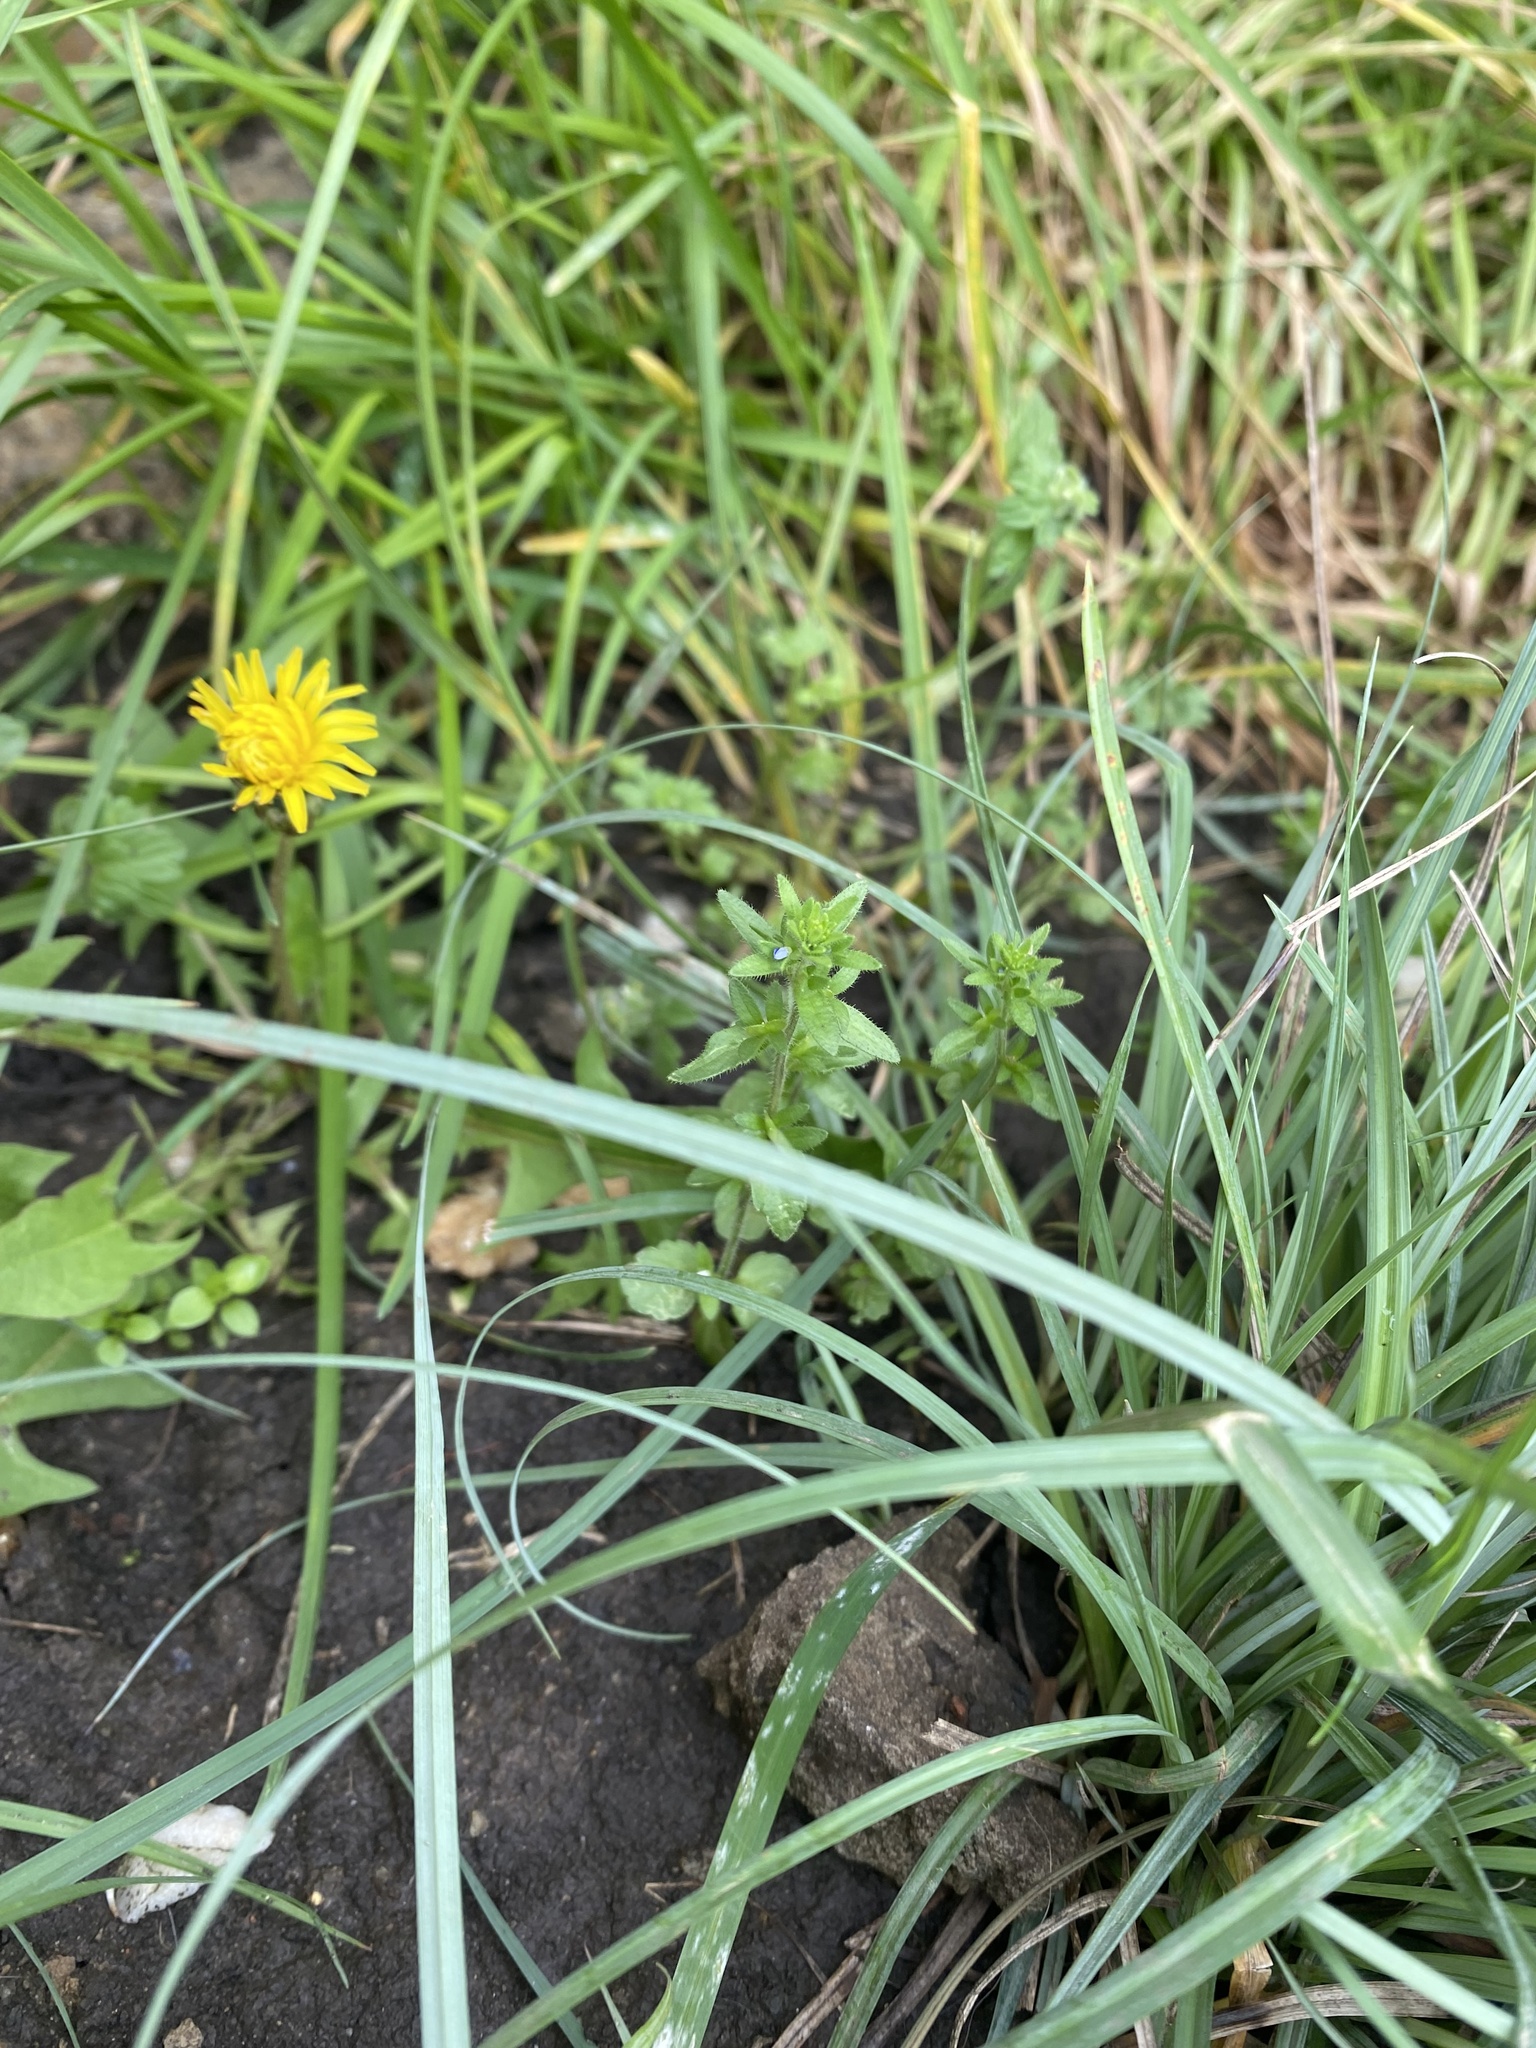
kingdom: Plantae
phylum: Tracheophyta
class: Magnoliopsida
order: Lamiales
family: Plantaginaceae
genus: Veronica
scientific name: Veronica arvensis
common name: Corn speedwell
